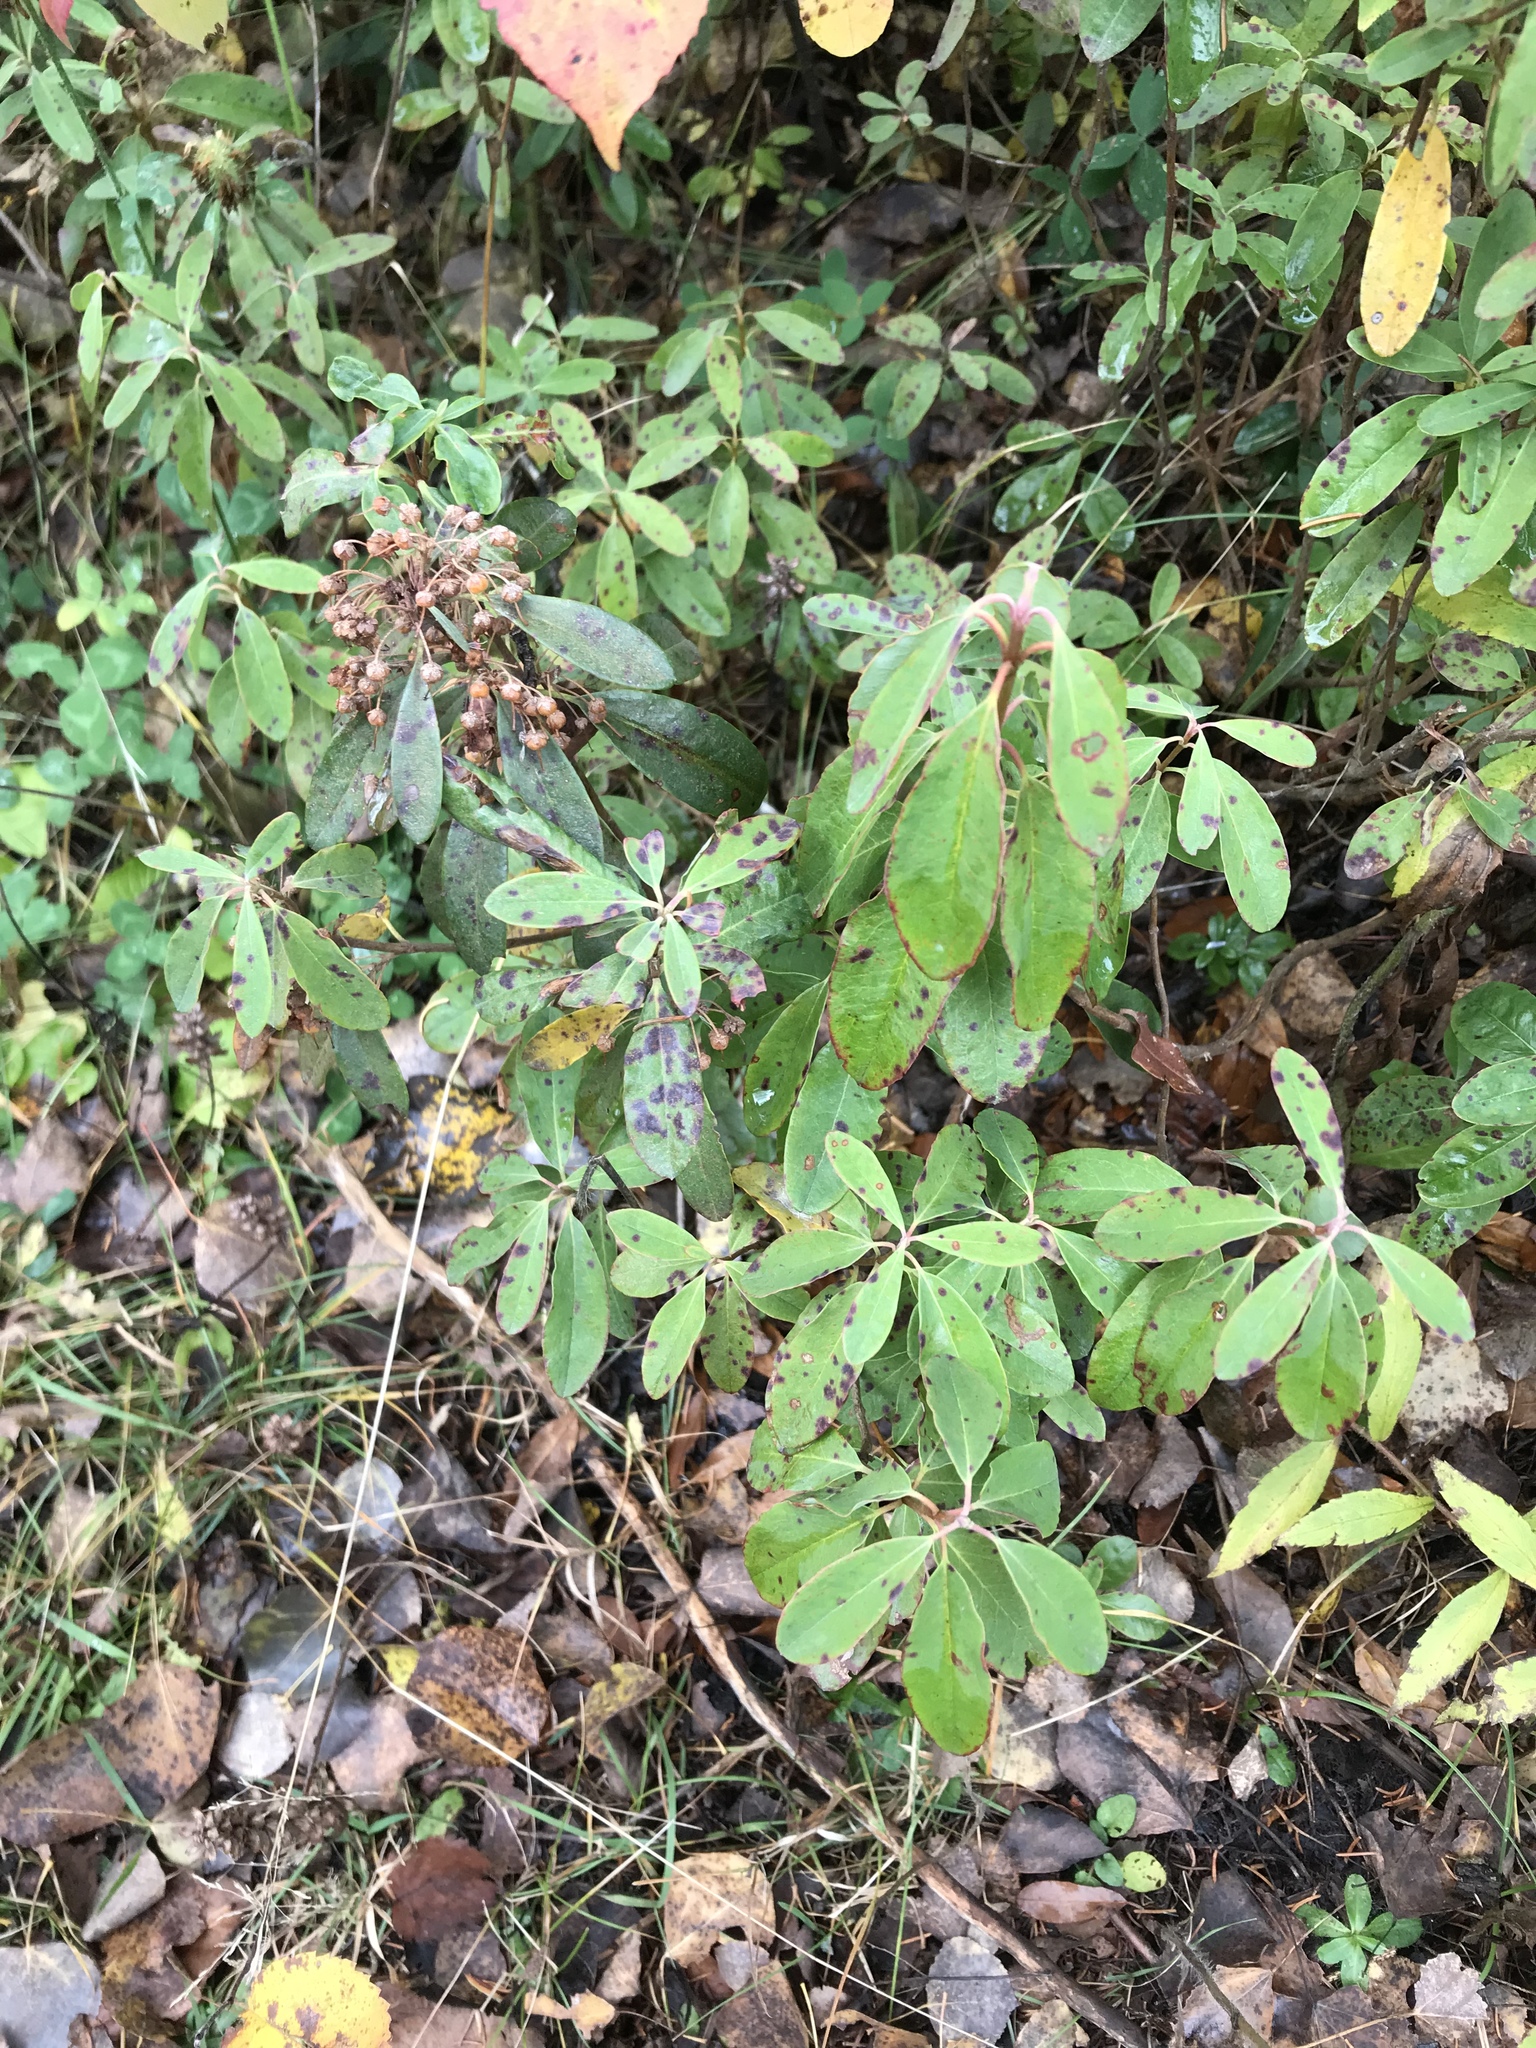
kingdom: Plantae
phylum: Tracheophyta
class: Magnoliopsida
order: Ericales
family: Ericaceae
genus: Kalmia
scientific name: Kalmia angustifolia
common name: Sheep-laurel
